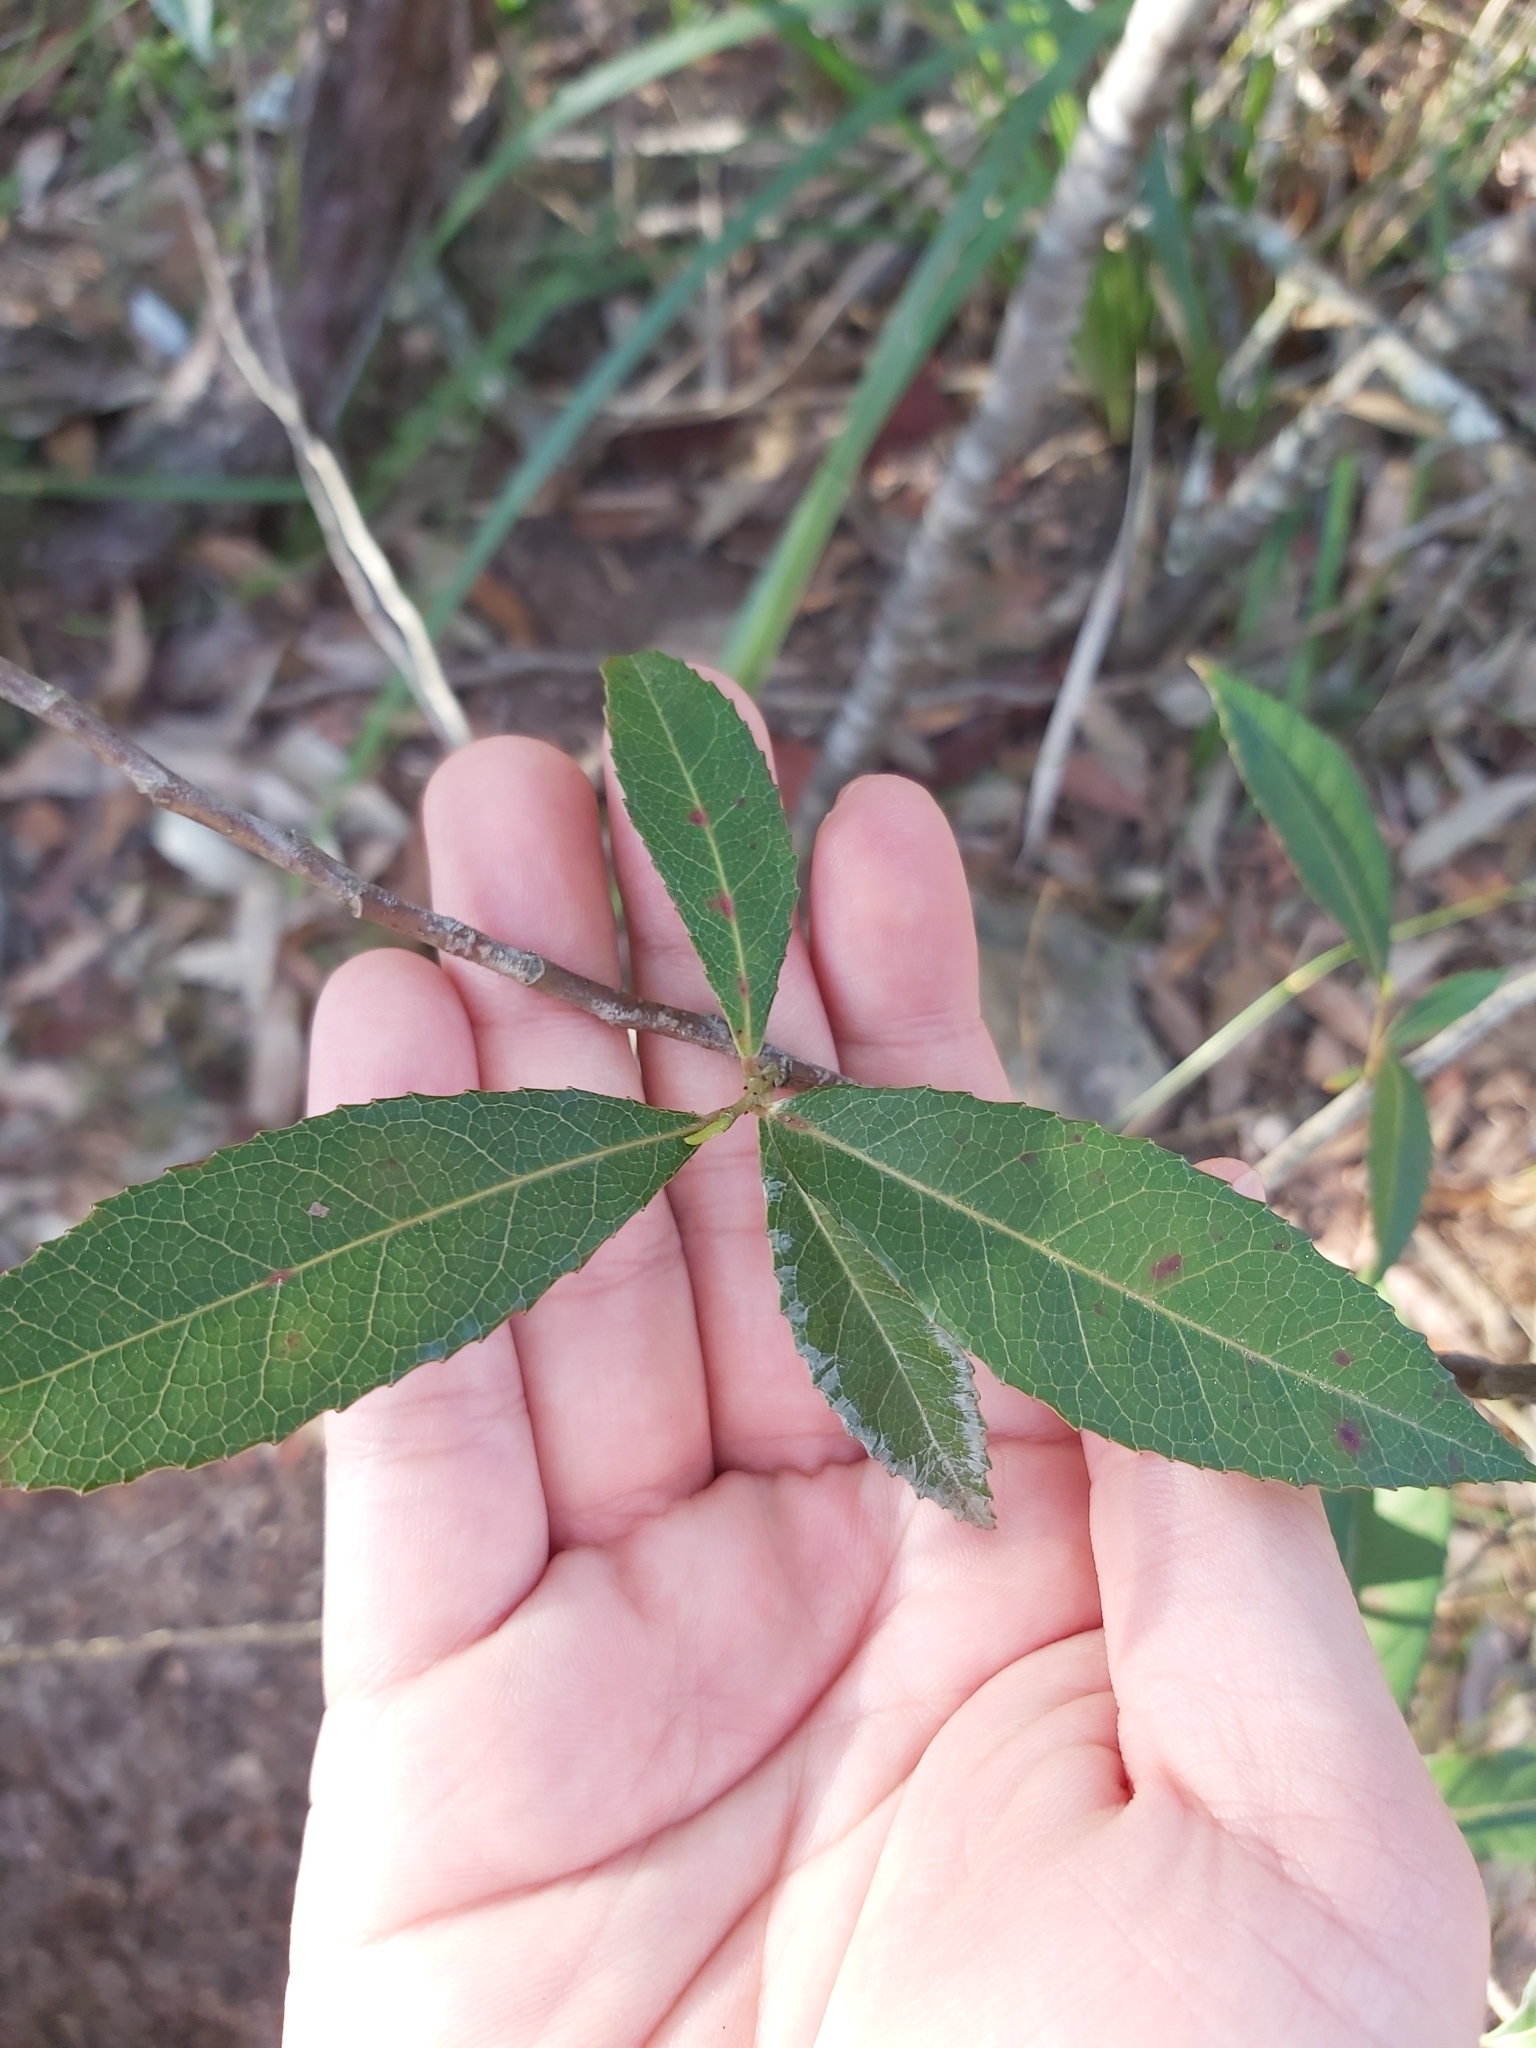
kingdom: Plantae
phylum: Tracheophyta
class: Magnoliopsida
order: Oxalidales
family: Elaeocarpaceae
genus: Elaeocarpus
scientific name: Elaeocarpus reticulatus
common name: Ash quandong
